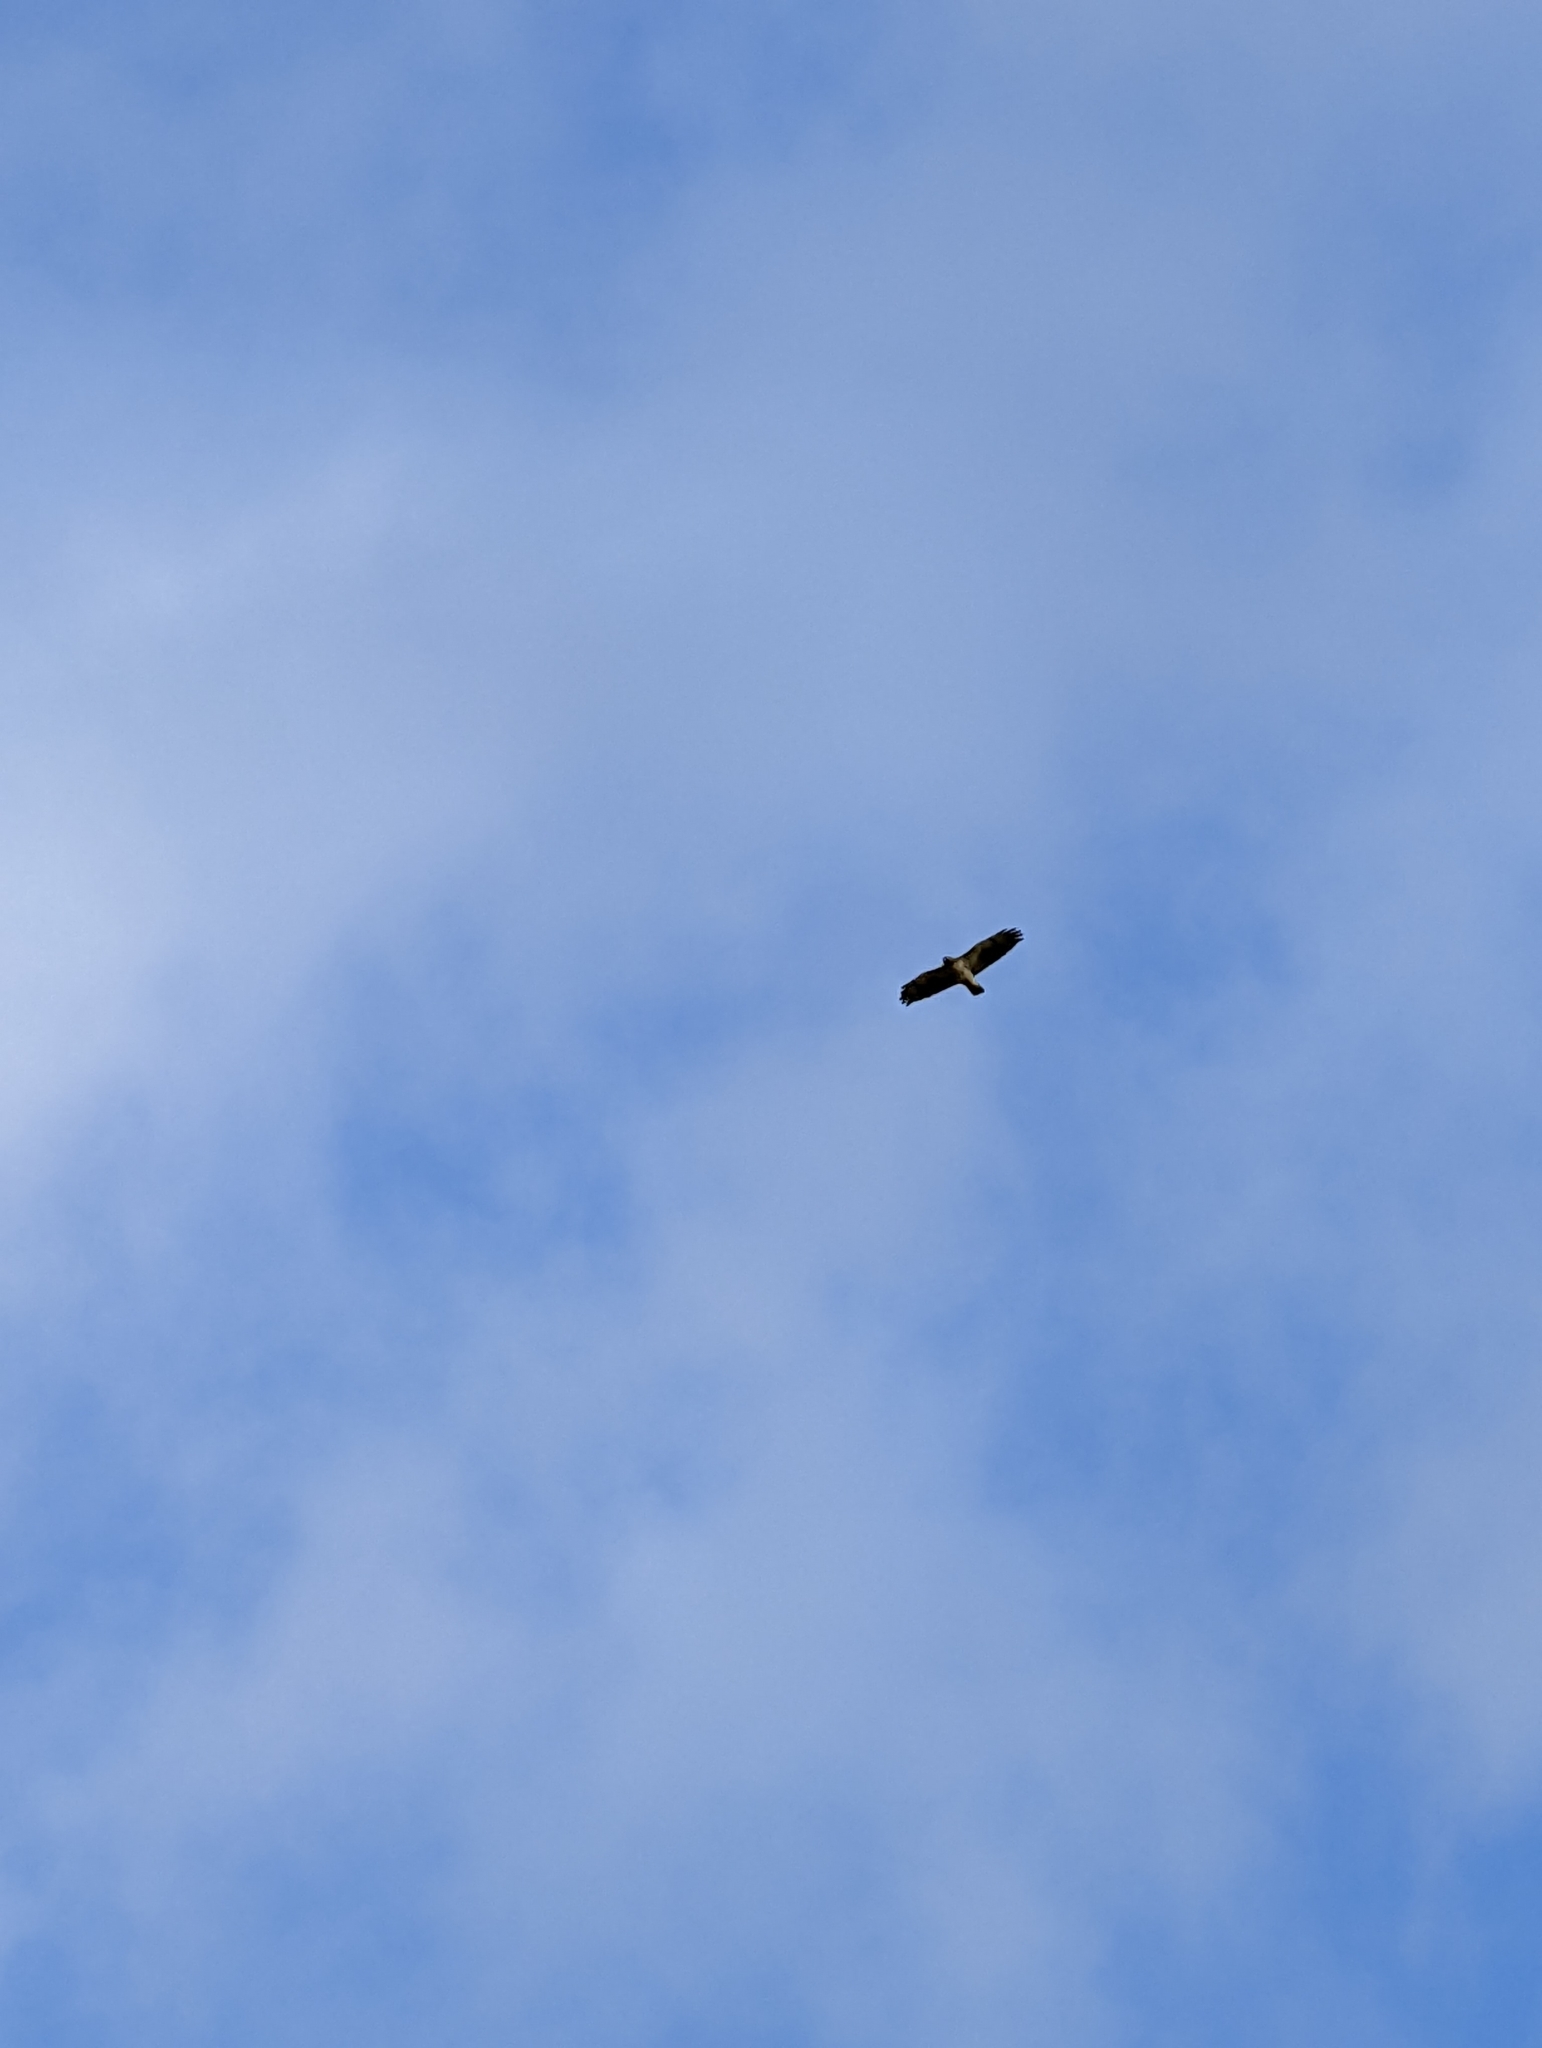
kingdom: Animalia
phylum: Chordata
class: Aves
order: Accipitriformes
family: Accipitridae
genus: Buteo
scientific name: Buteo jamaicensis
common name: Red-tailed hawk
